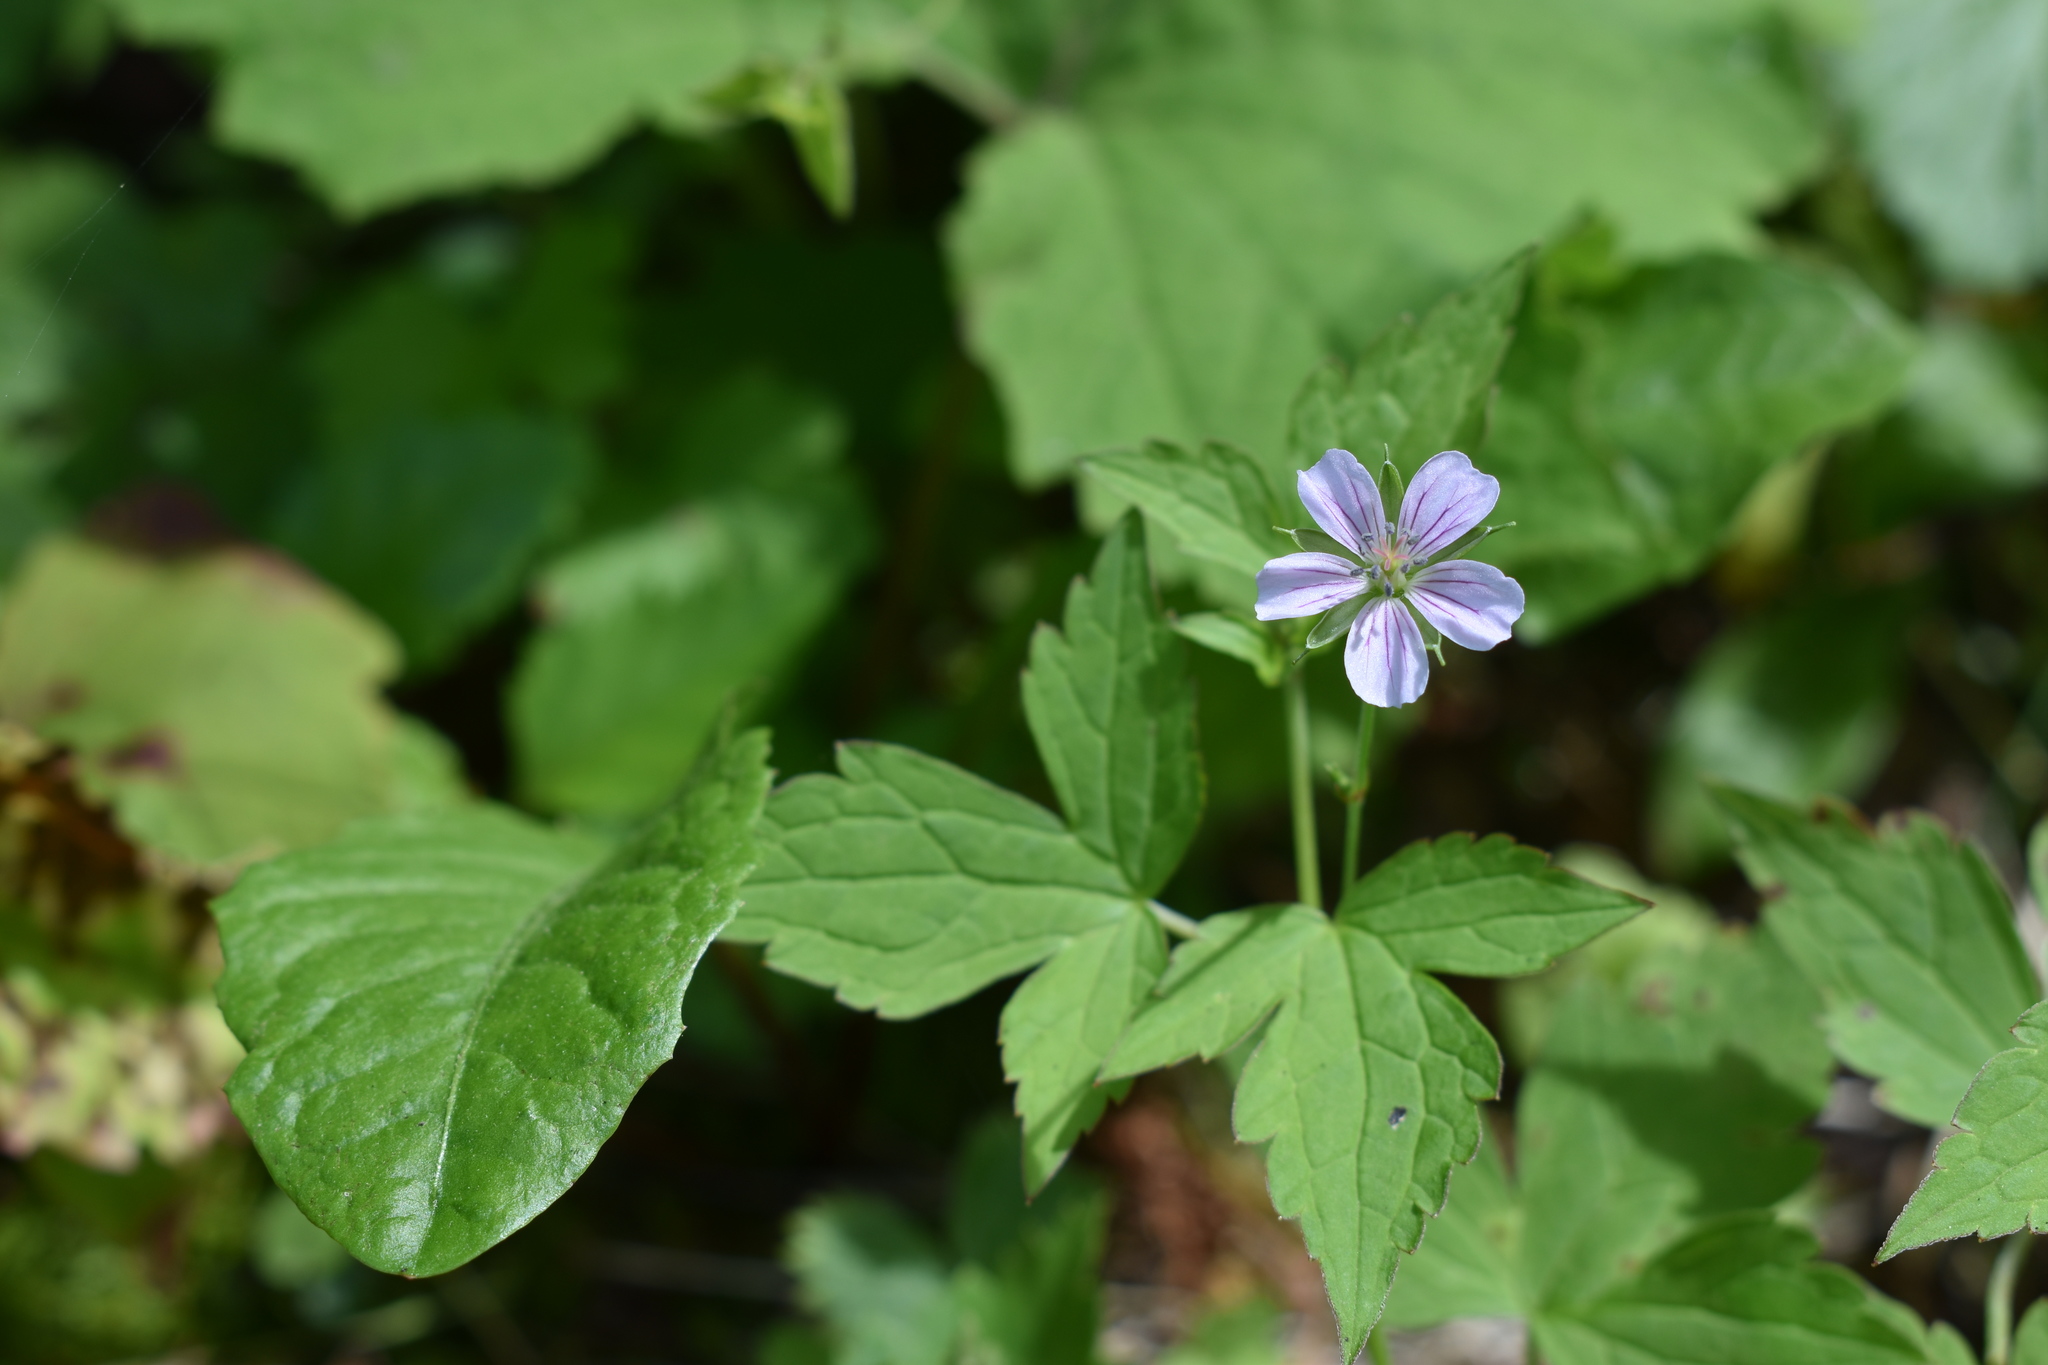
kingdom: Plantae
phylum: Tracheophyta
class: Magnoliopsida
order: Geraniales
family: Geraniaceae
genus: Geranium
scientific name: Geranium wilfordii
